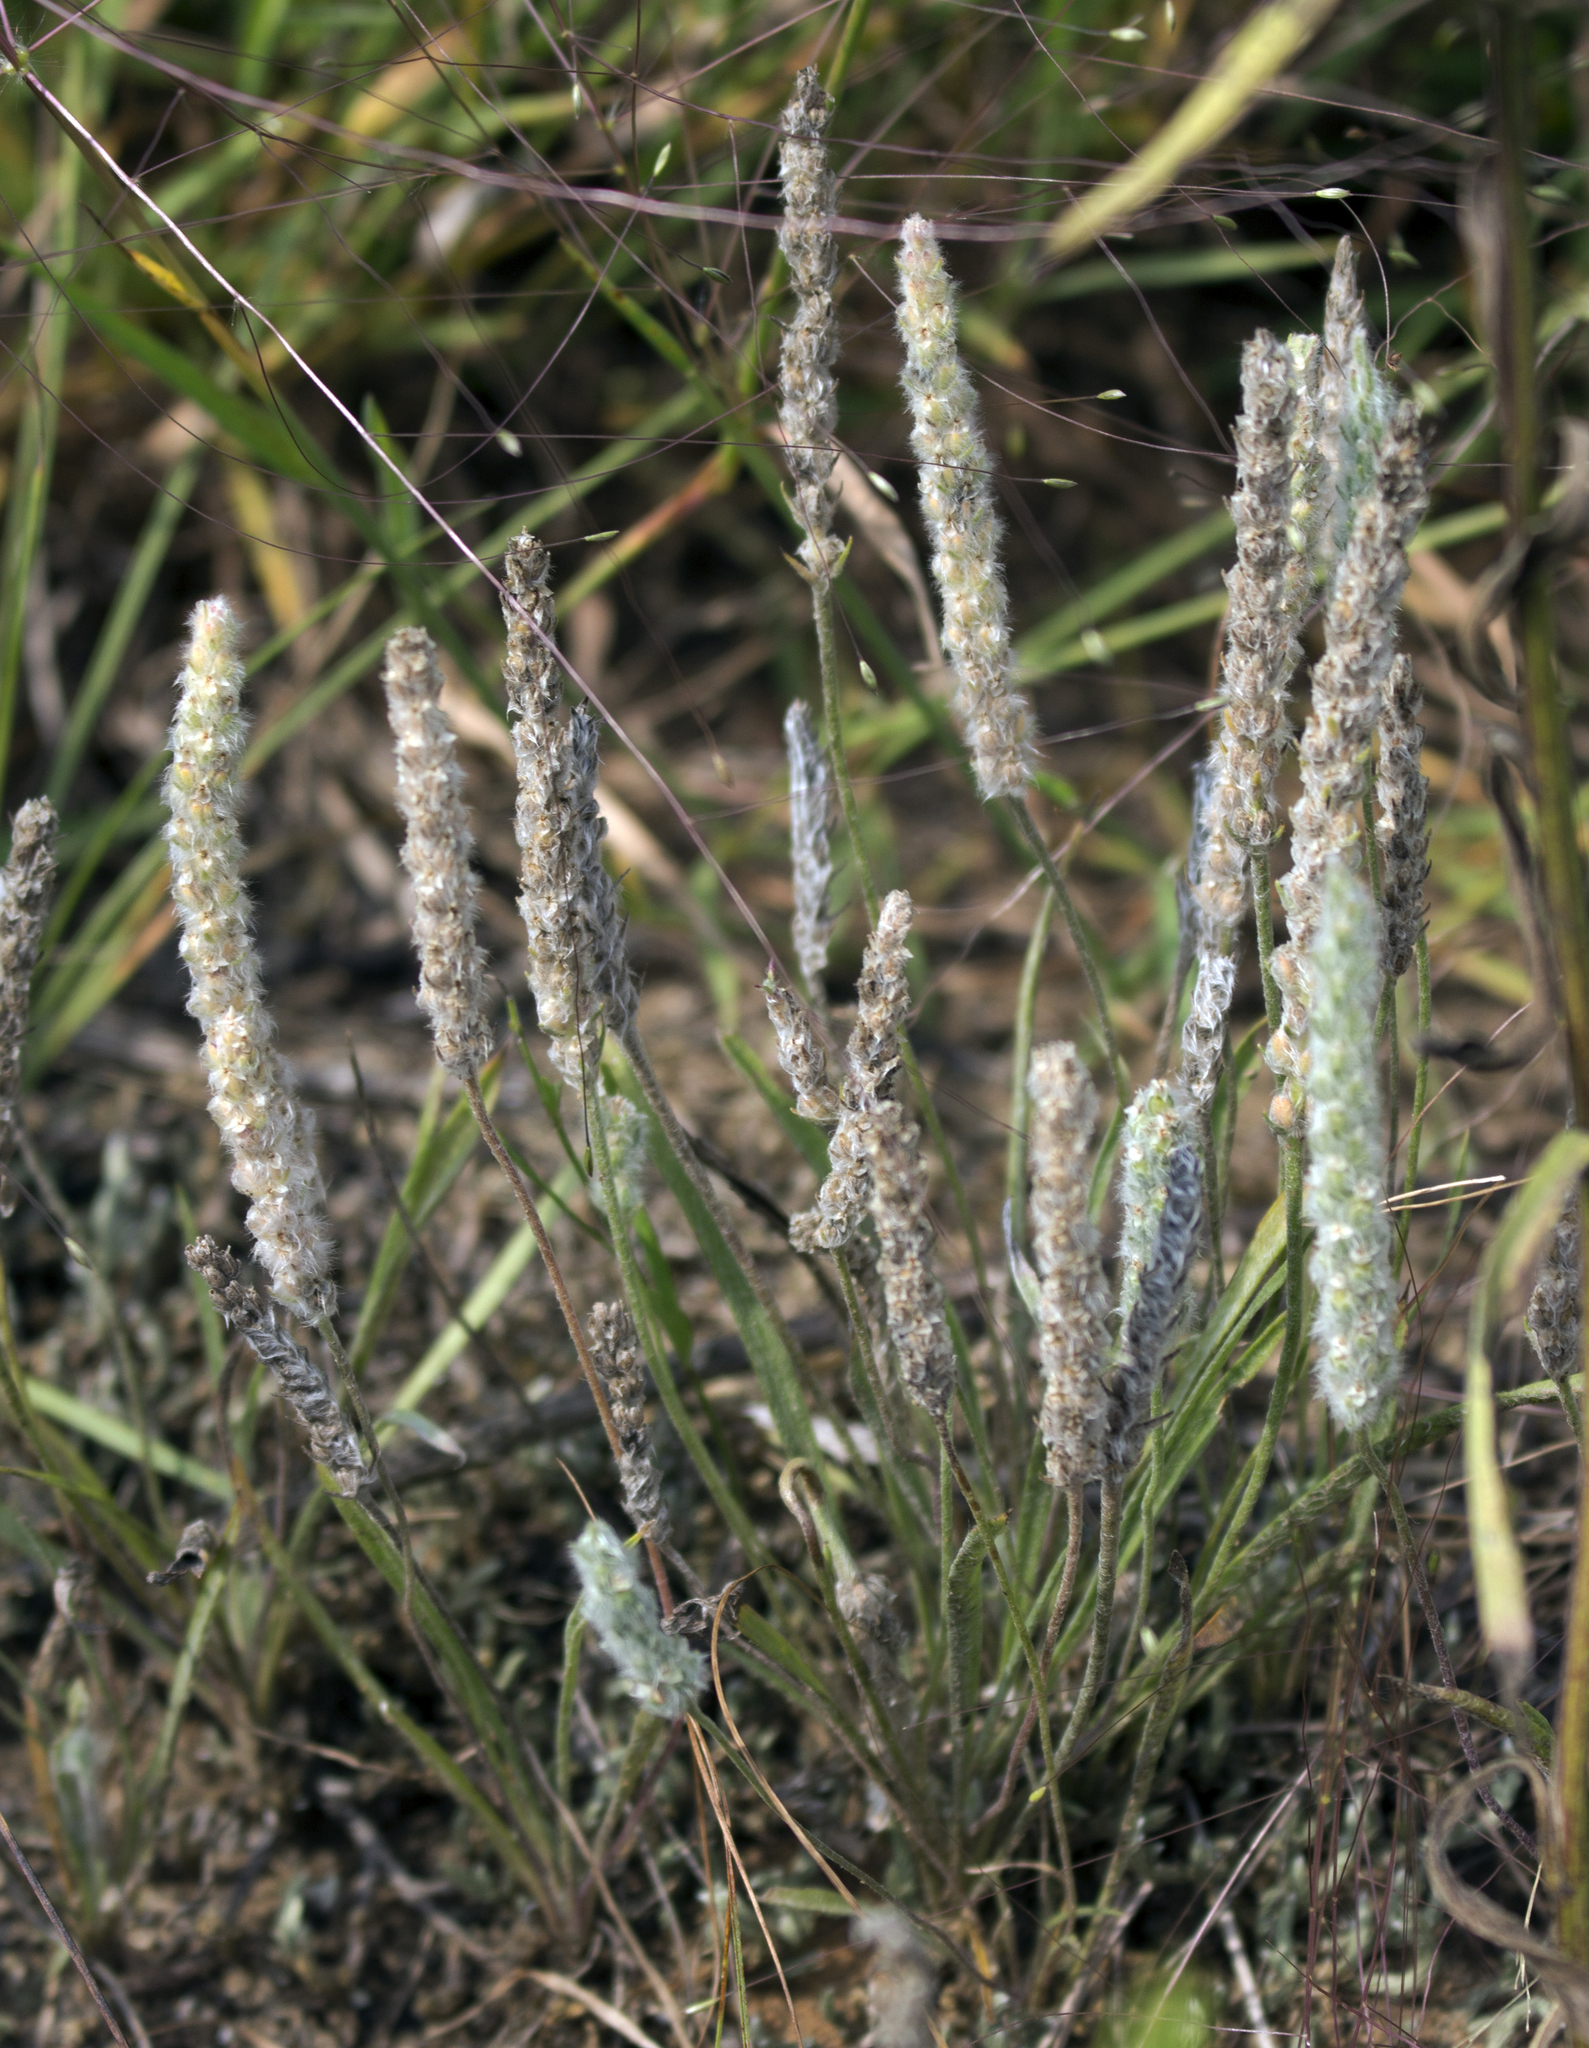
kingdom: Plantae
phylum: Tracheophyta
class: Magnoliopsida
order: Lamiales
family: Plantaginaceae
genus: Plantago
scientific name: Plantago patagonica
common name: Patagonia indian-wheat
